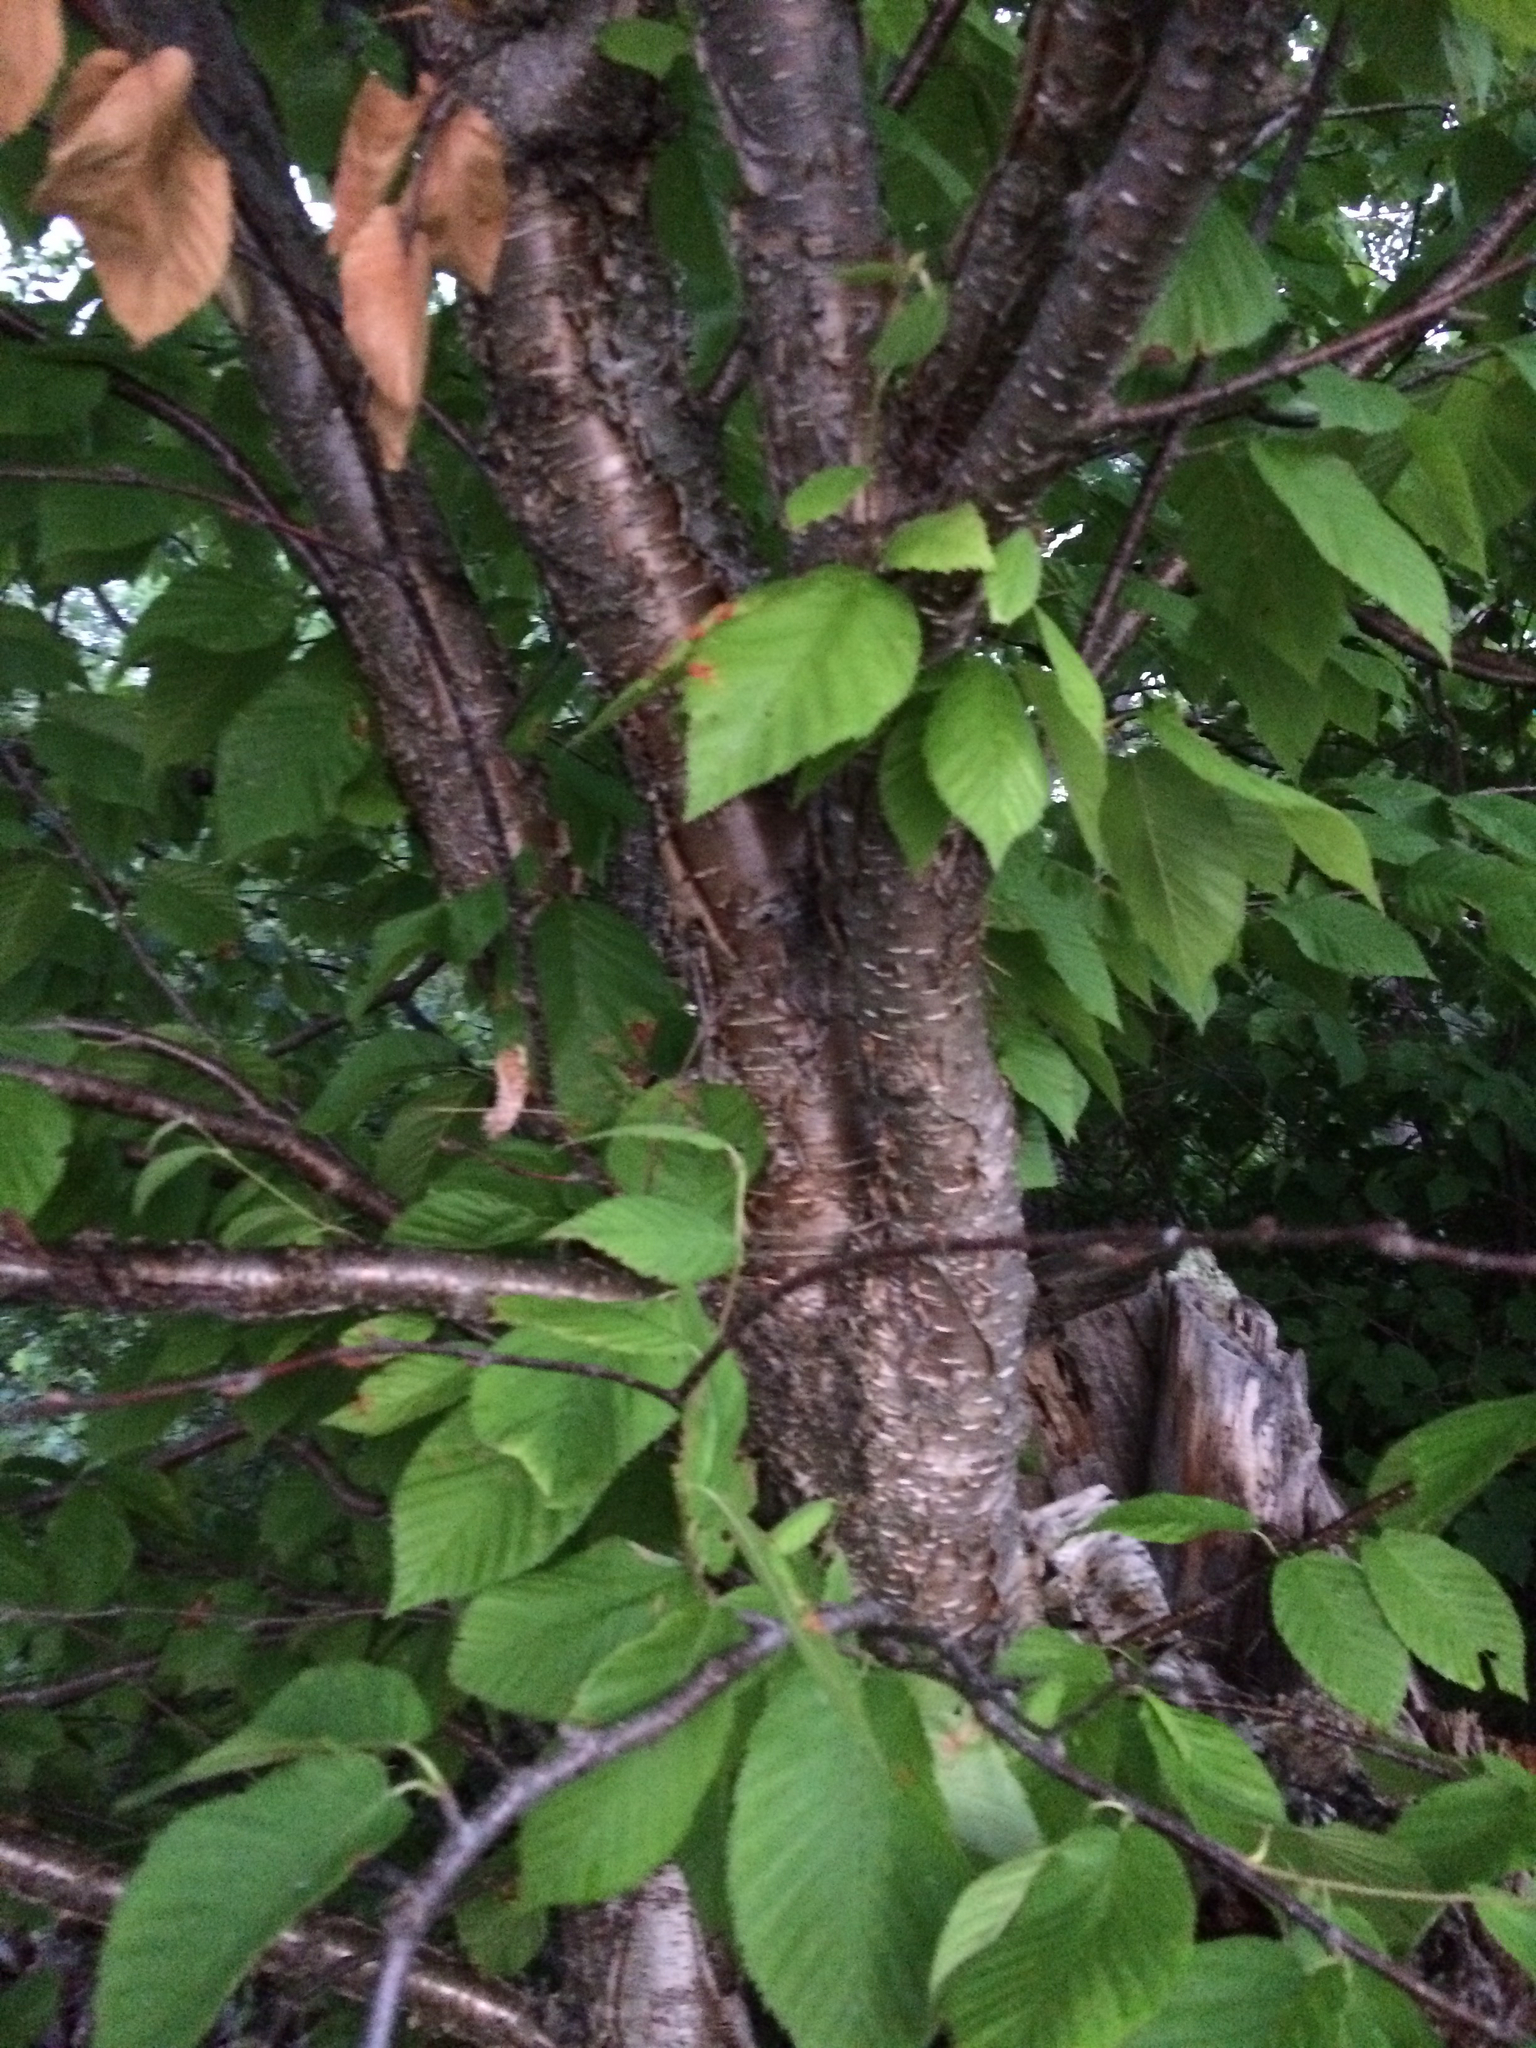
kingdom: Plantae
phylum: Tracheophyta
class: Magnoliopsida
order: Fagales
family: Betulaceae
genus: Betula
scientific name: Betula alleghaniensis
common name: Yellow birch
